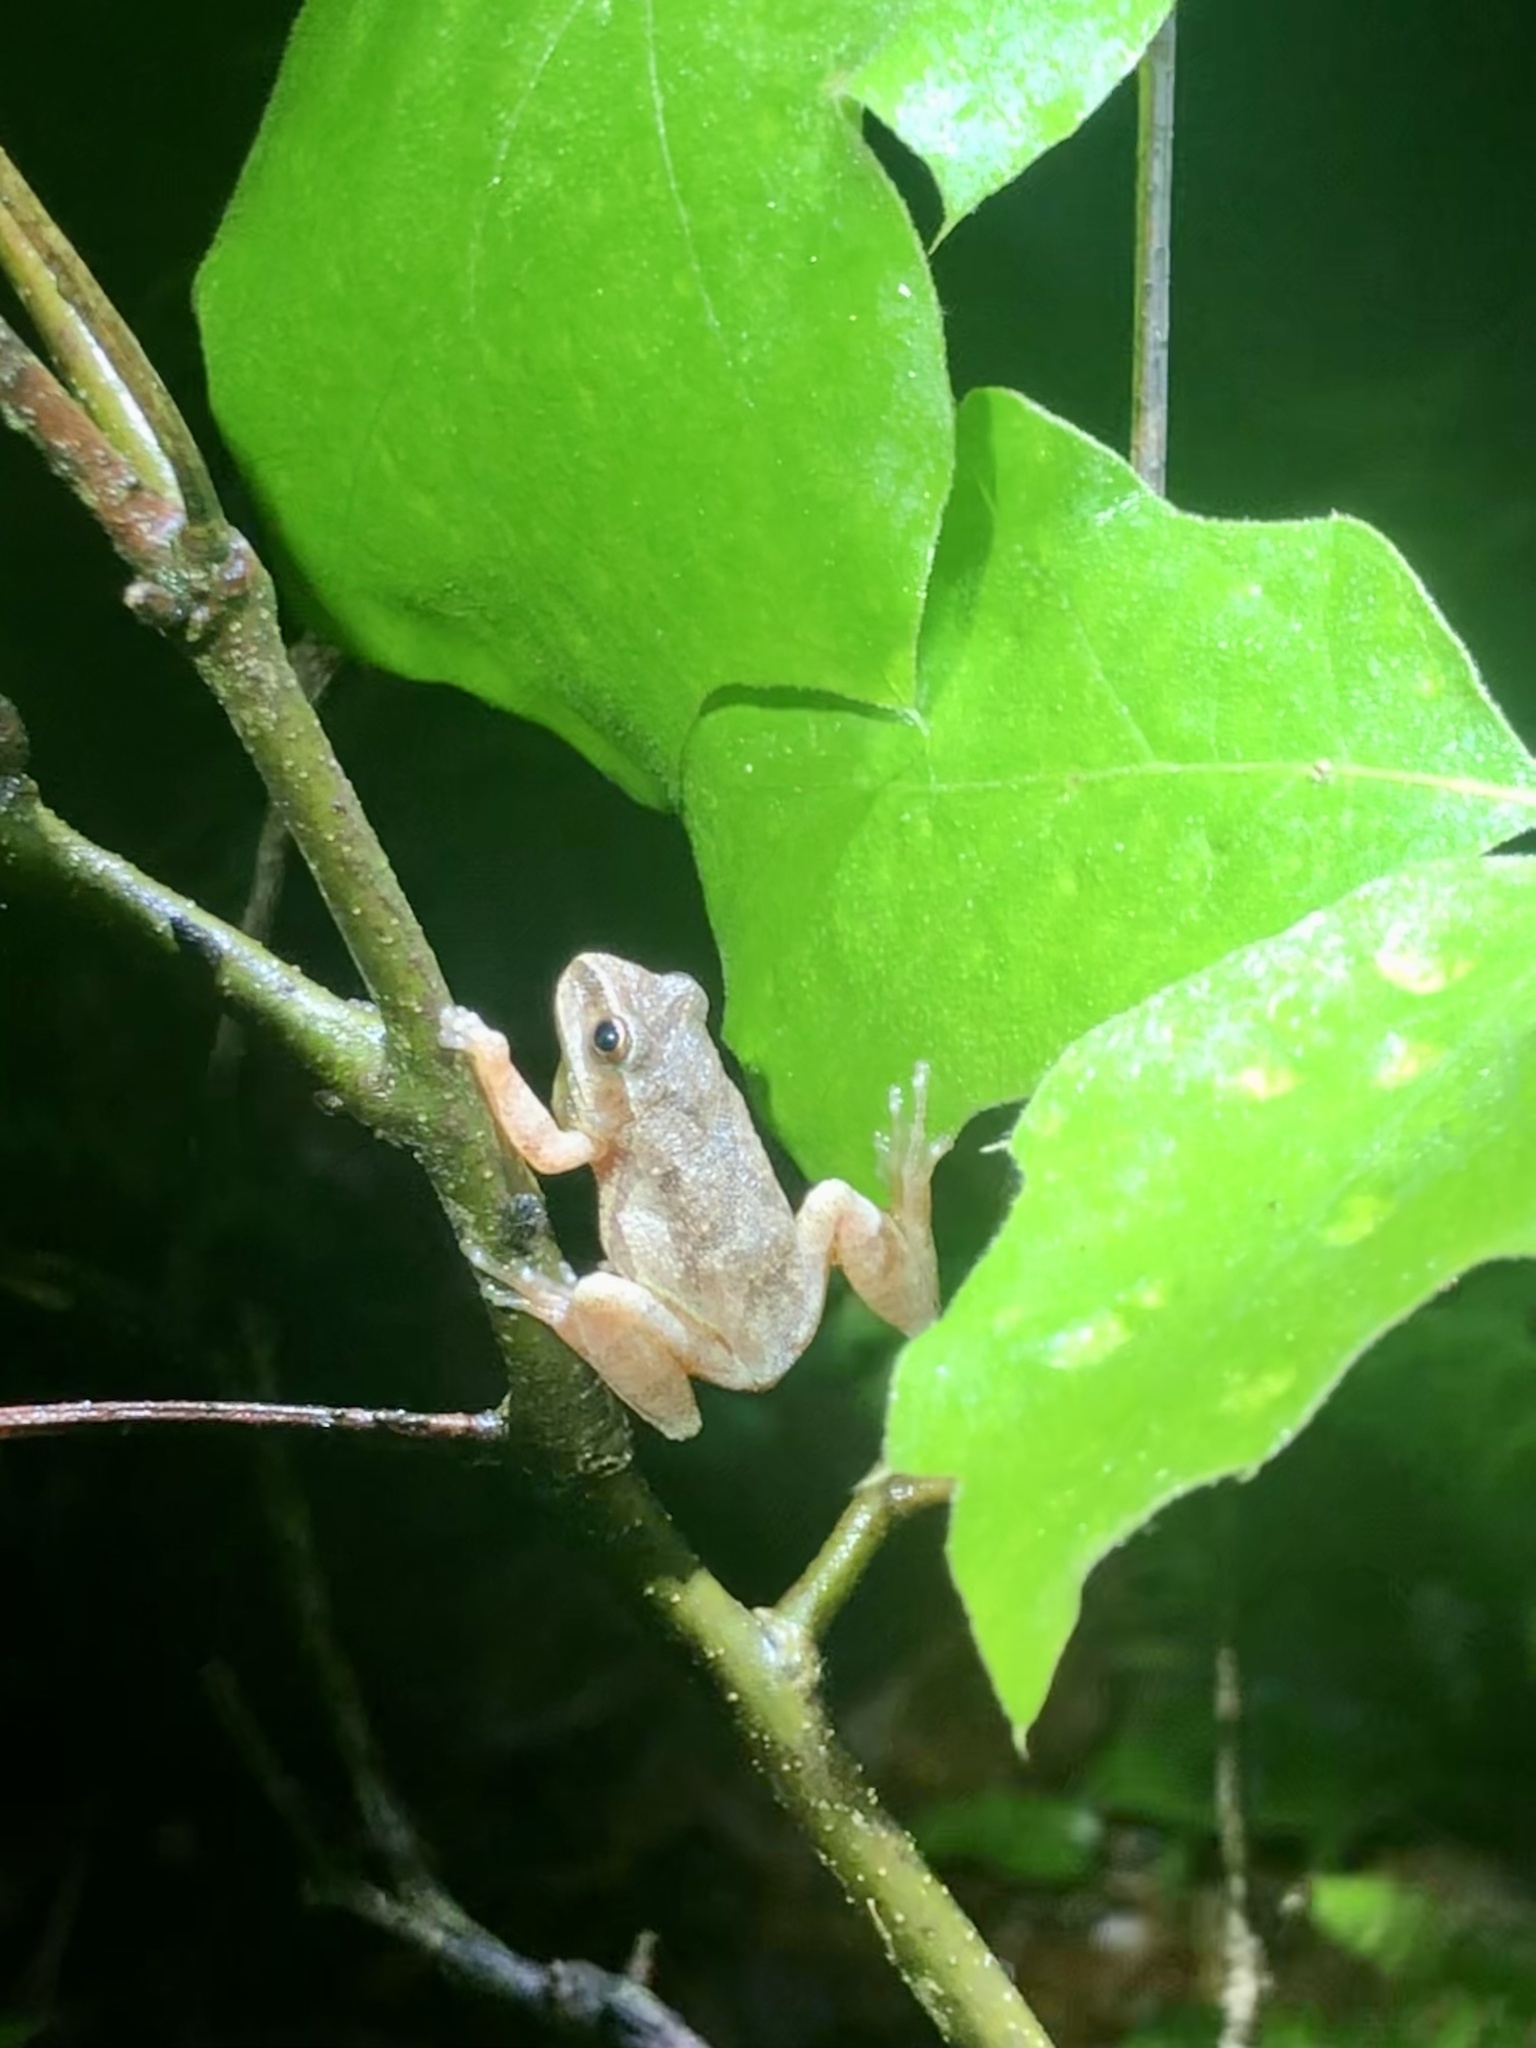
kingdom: Animalia
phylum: Chordata
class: Amphibia
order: Anura
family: Hylidae
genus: Pseudacris
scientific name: Pseudacris crucifer
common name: Spring peeper
